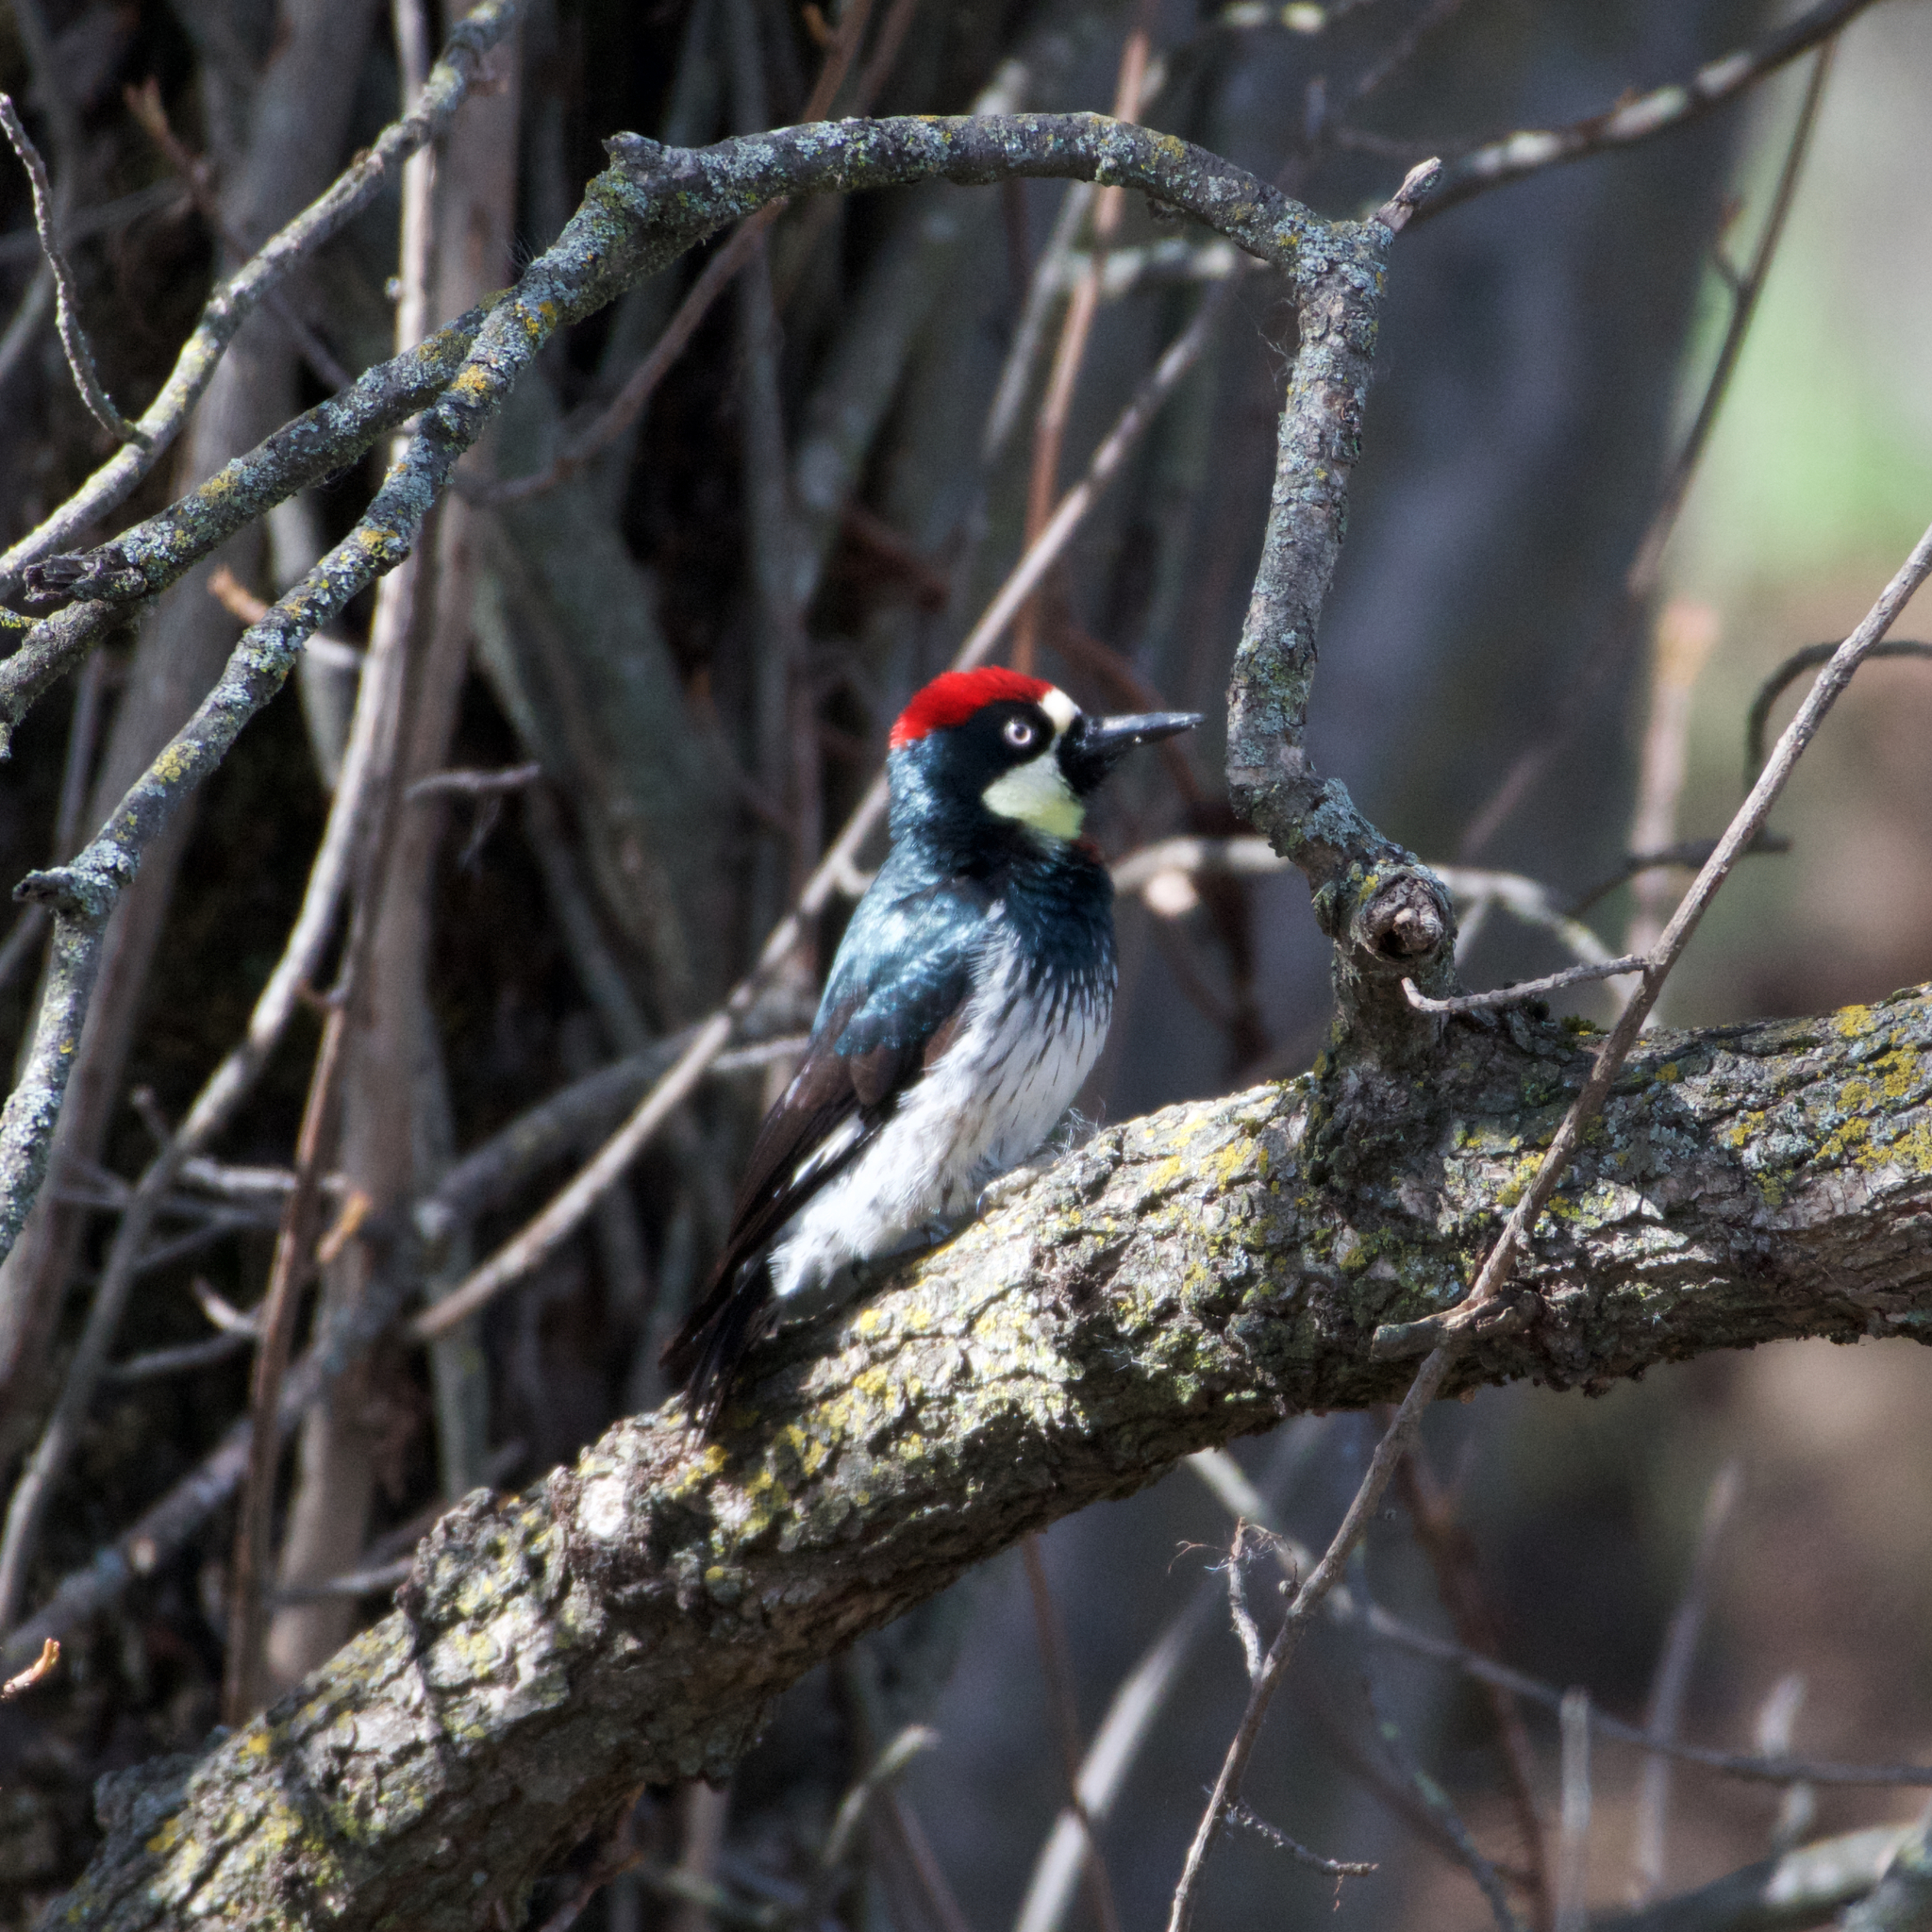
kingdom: Animalia
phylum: Chordata
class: Aves
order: Piciformes
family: Picidae
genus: Melanerpes
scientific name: Melanerpes formicivorus
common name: Acorn woodpecker
